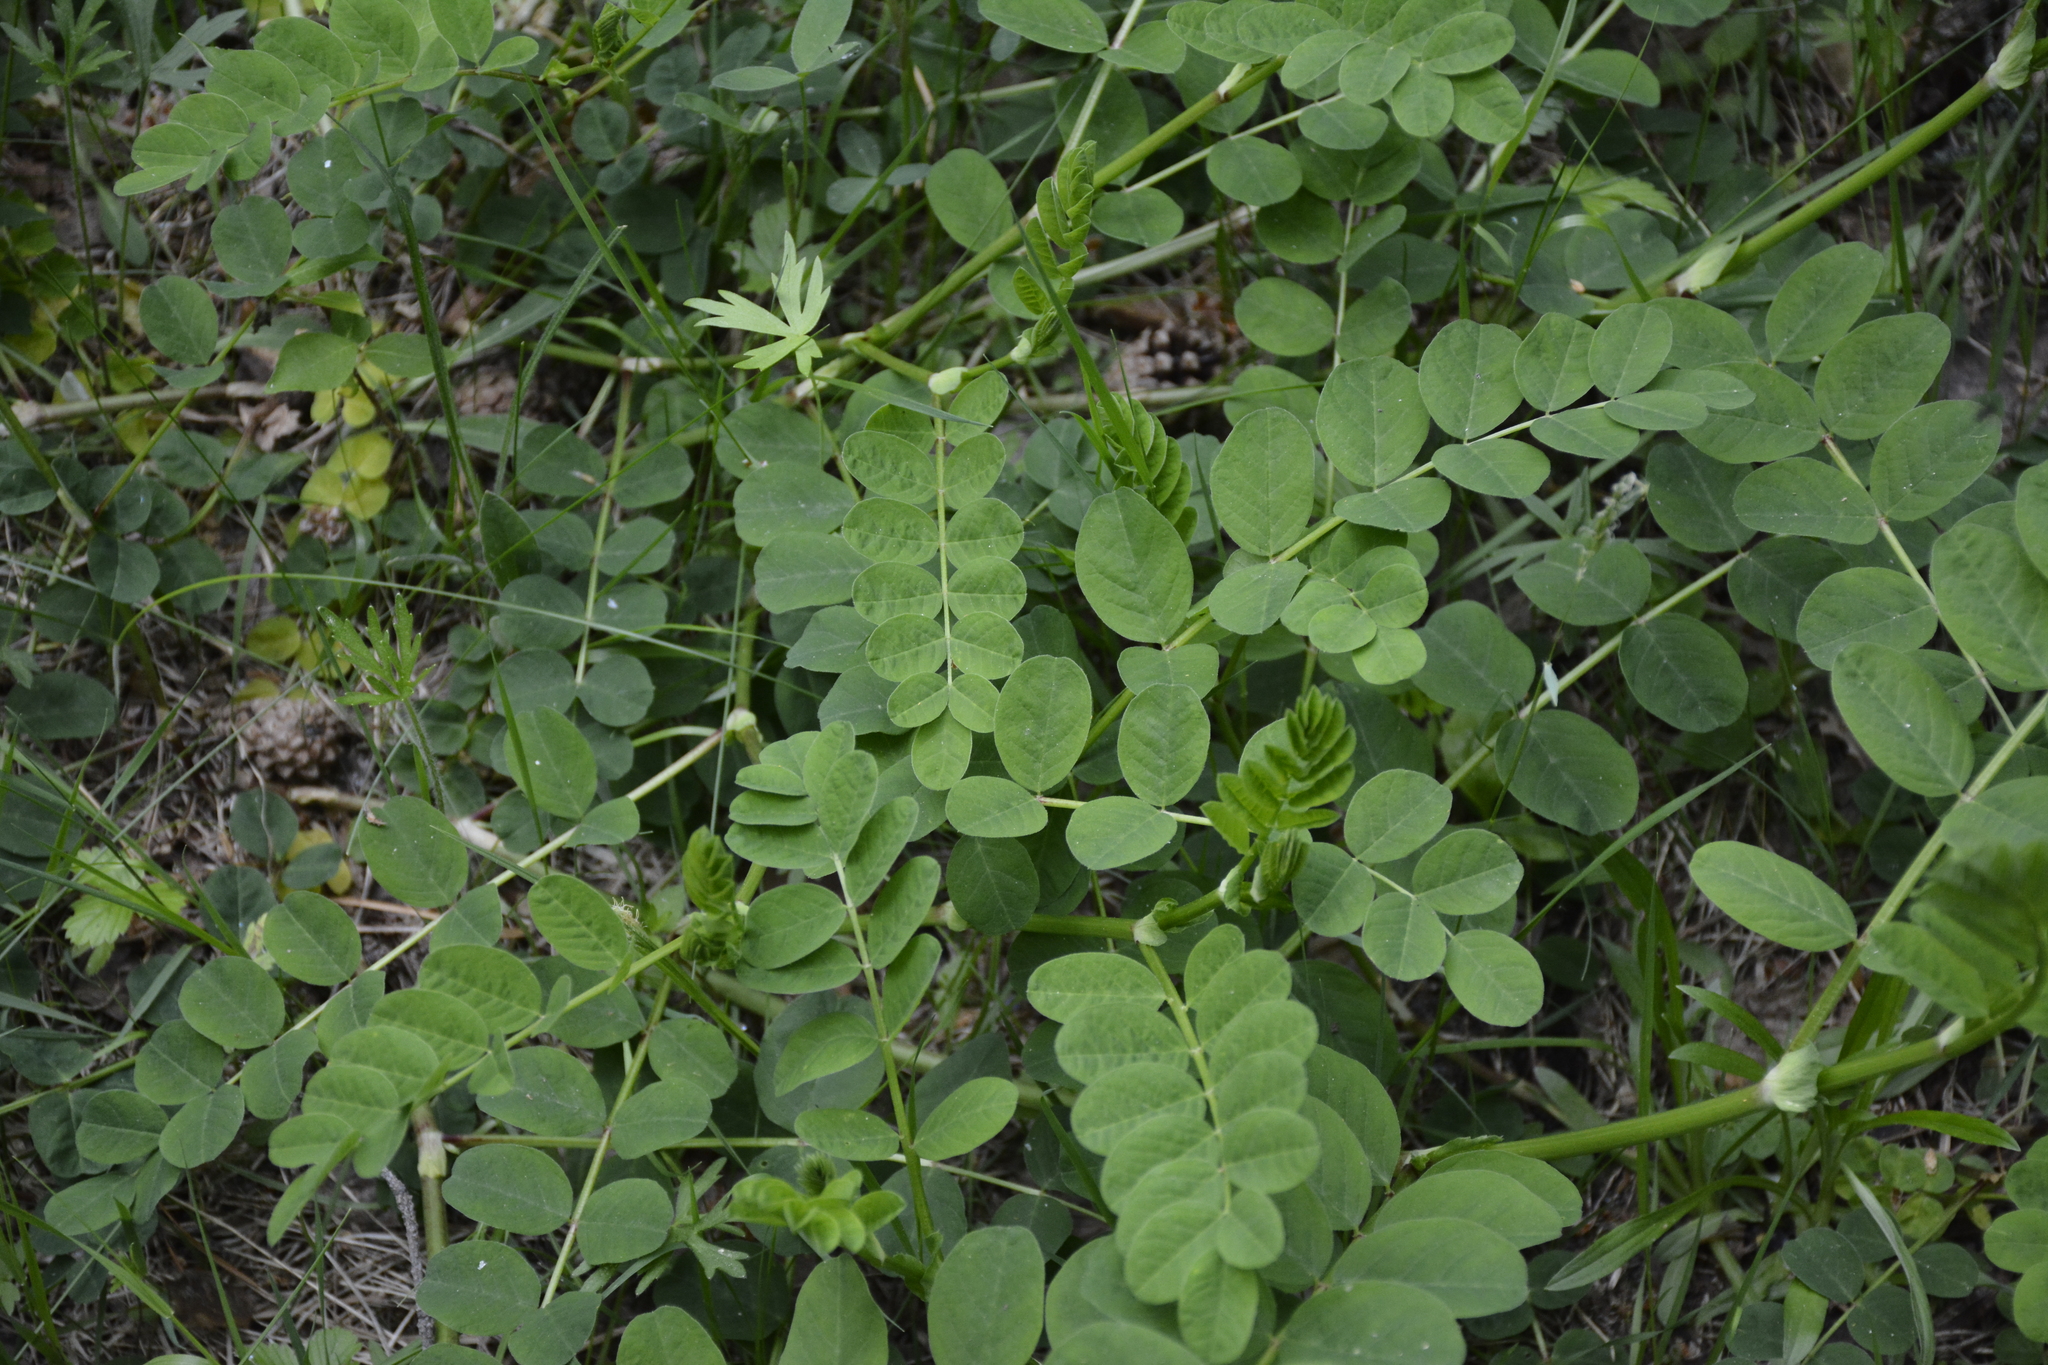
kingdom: Plantae
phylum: Tracheophyta
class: Magnoliopsida
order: Fabales
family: Fabaceae
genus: Astragalus
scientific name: Astragalus glycyphyllos
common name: Wild liquorice
